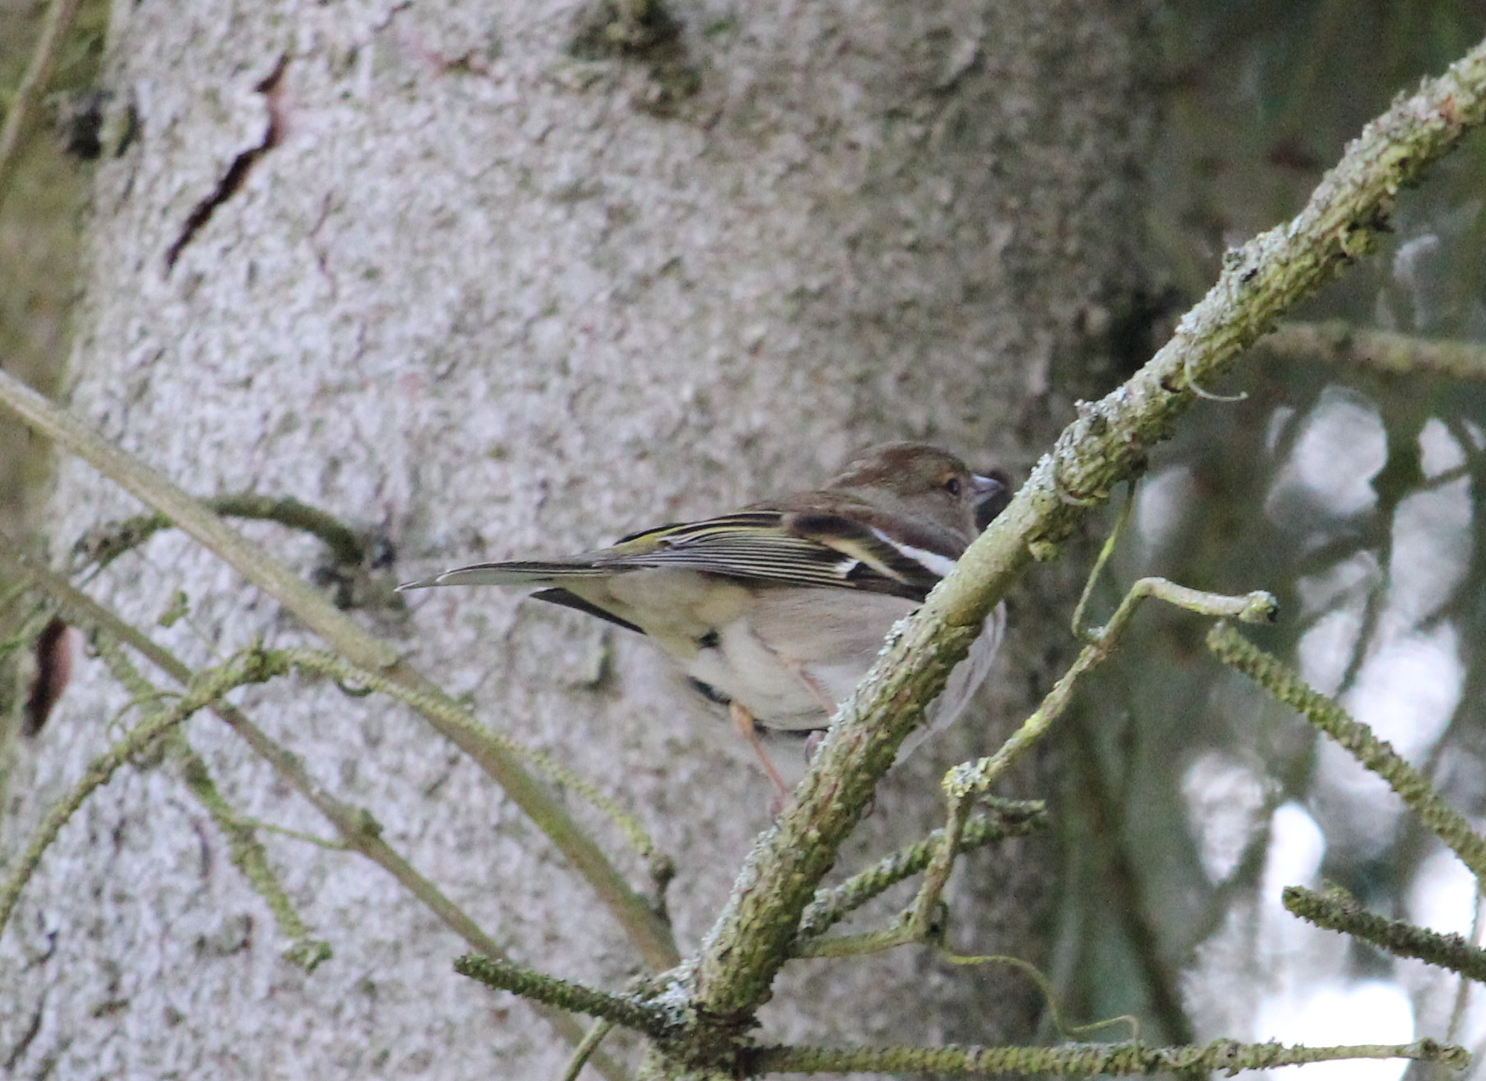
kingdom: Animalia
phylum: Chordata
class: Aves
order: Passeriformes
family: Fringillidae
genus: Fringilla
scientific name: Fringilla coelebs
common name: Common chaffinch
